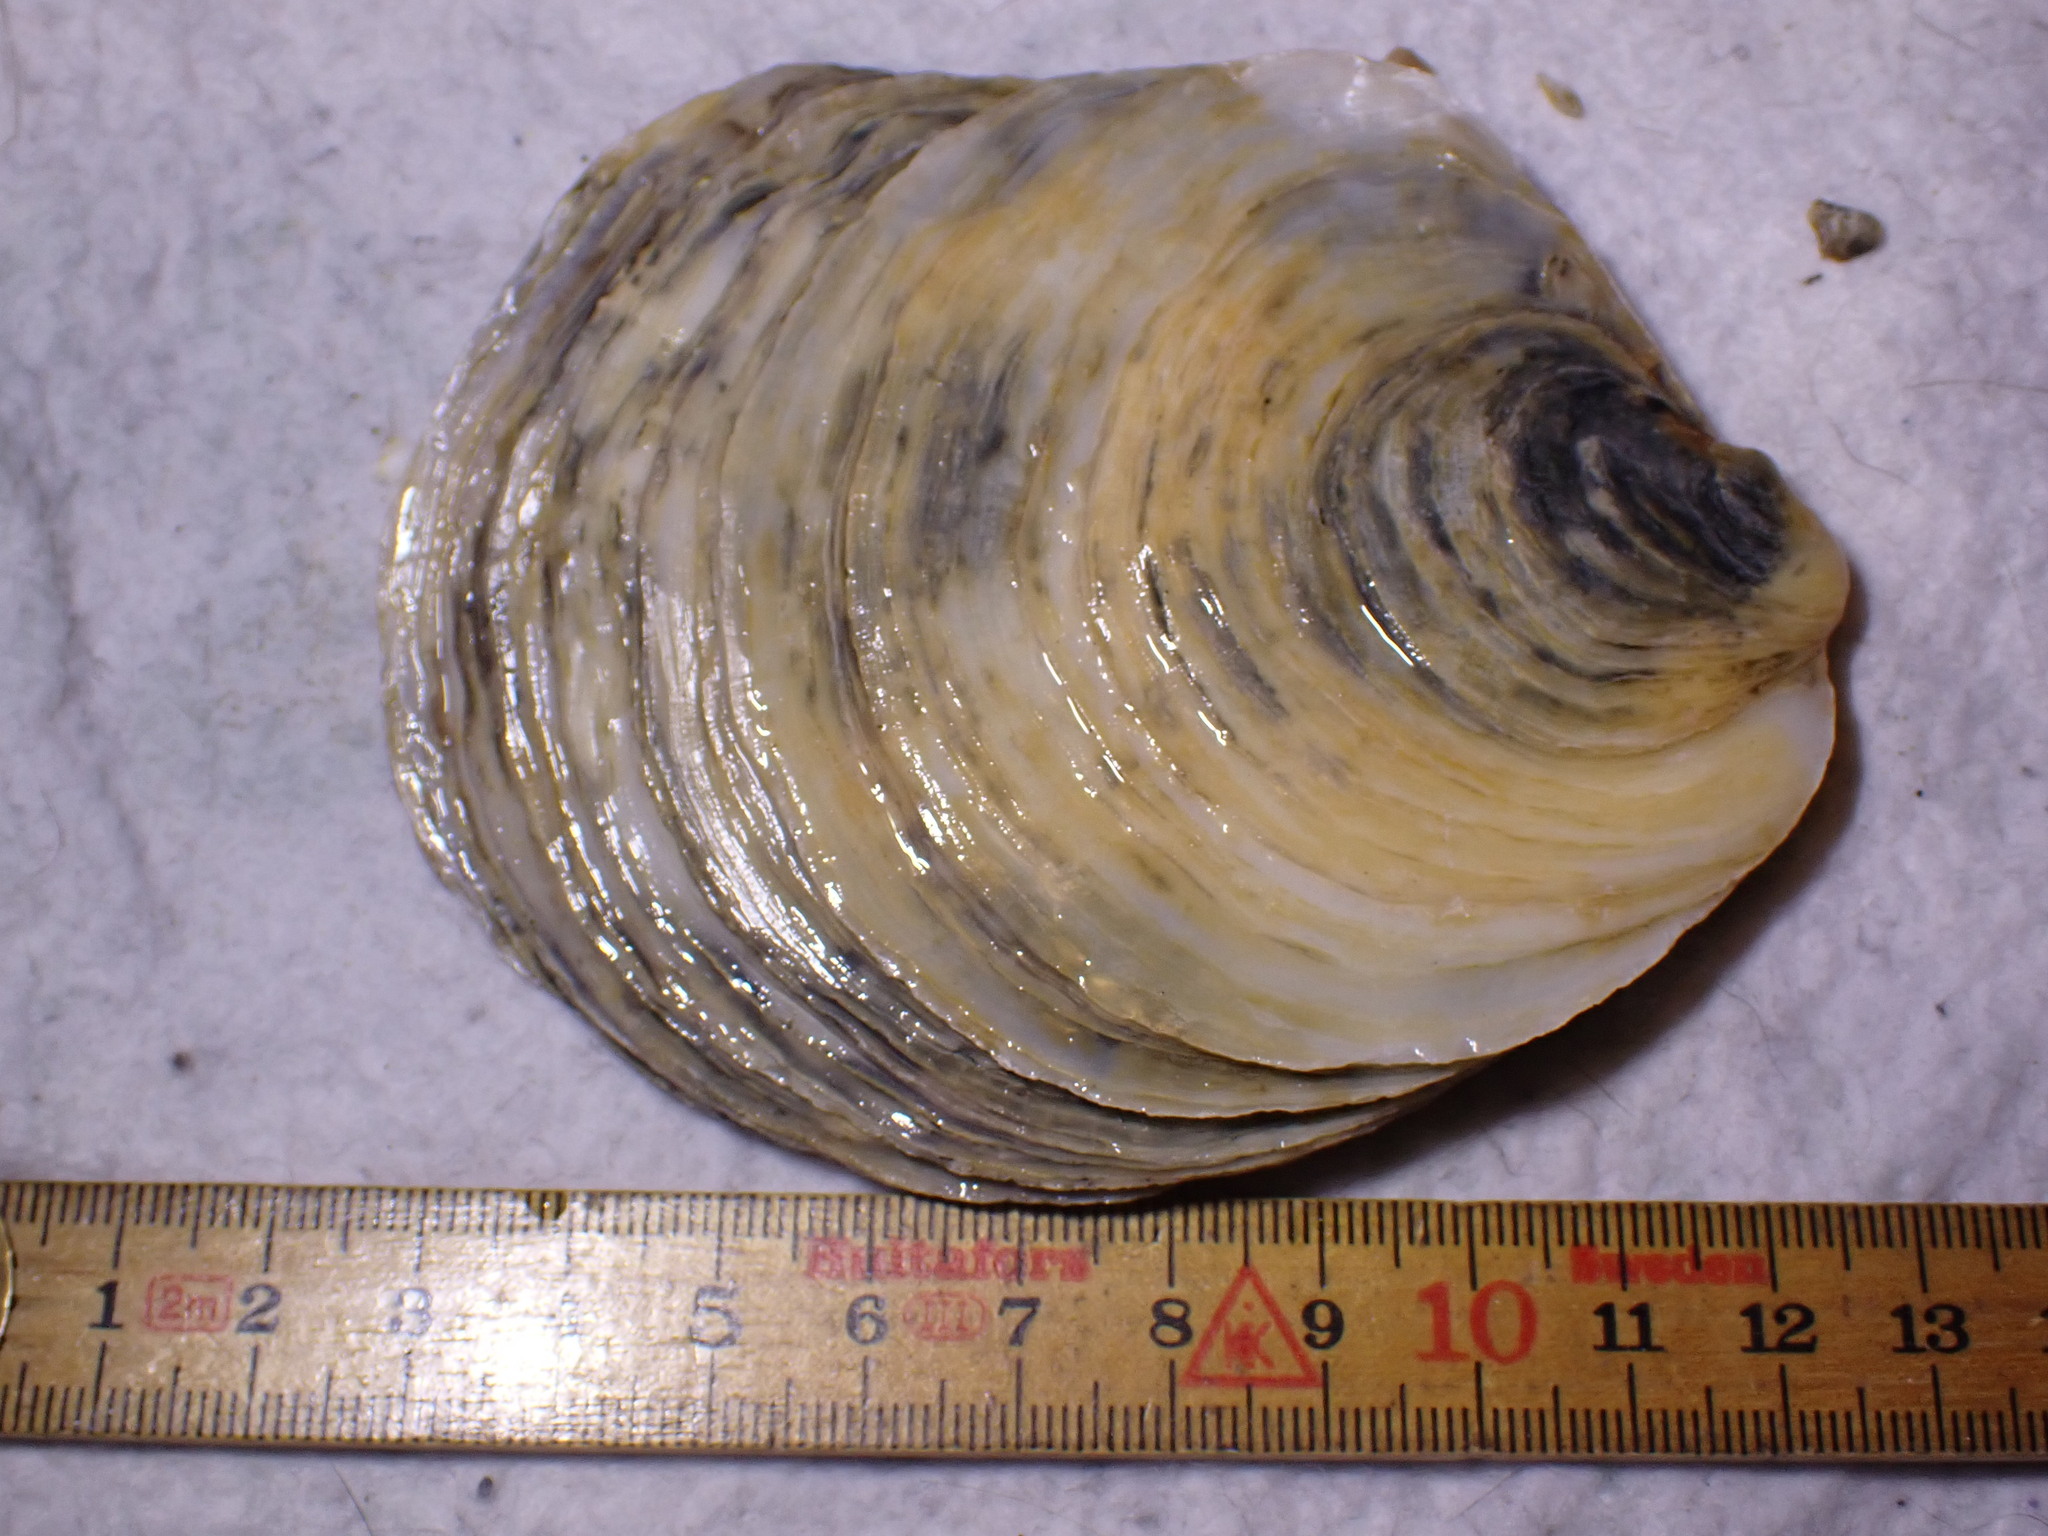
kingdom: Animalia
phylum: Mollusca
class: Bivalvia
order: Ostreida
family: Ostreidae
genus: Ostrea
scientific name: Ostrea edulis
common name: Flat oyster
